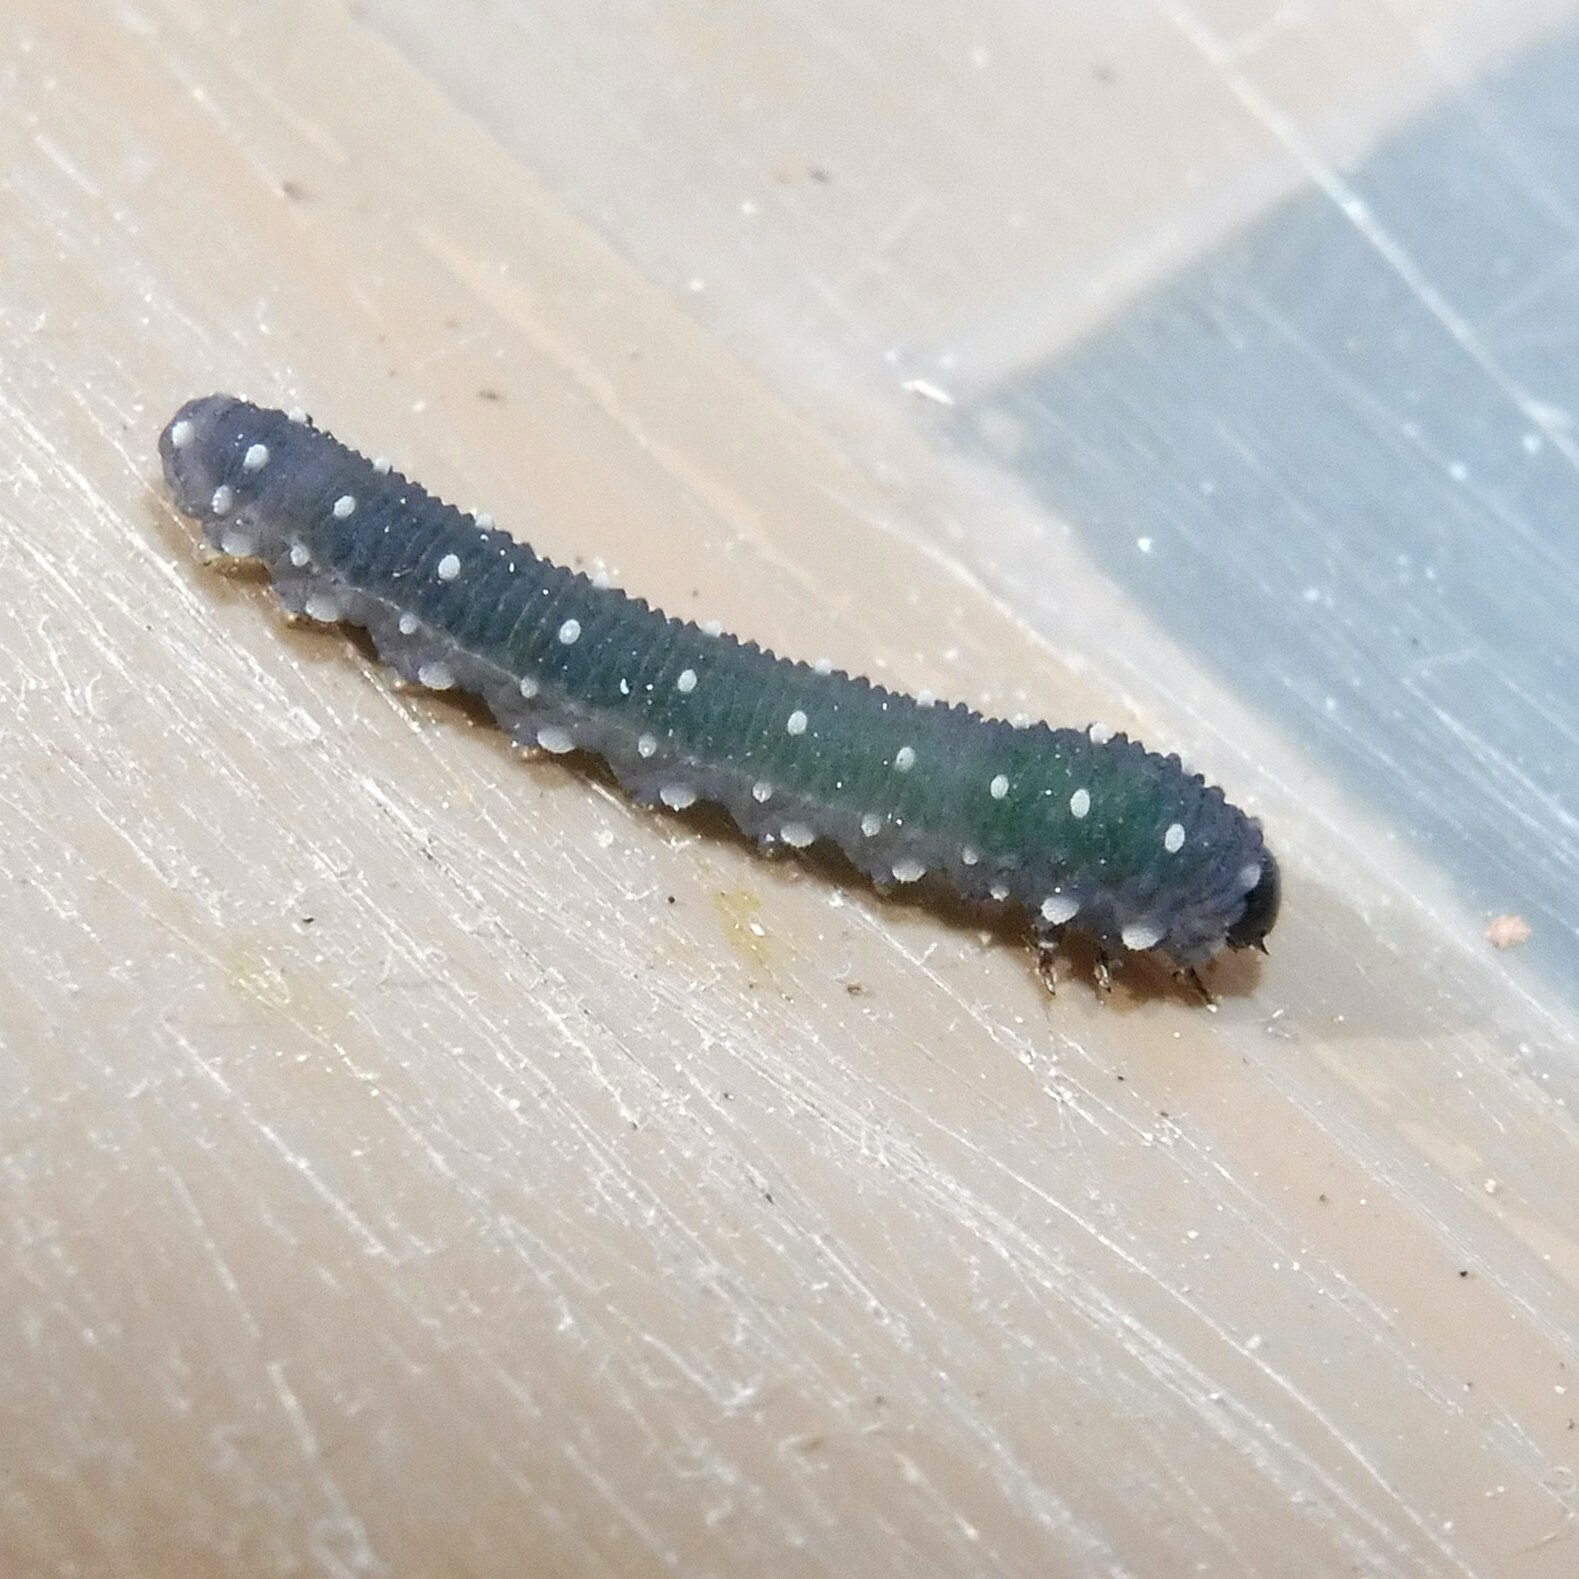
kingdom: Animalia
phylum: Arthropoda
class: Insecta
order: Hymenoptera
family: Tenthredinidae
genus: Athalia
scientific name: Athalia scutellariae
